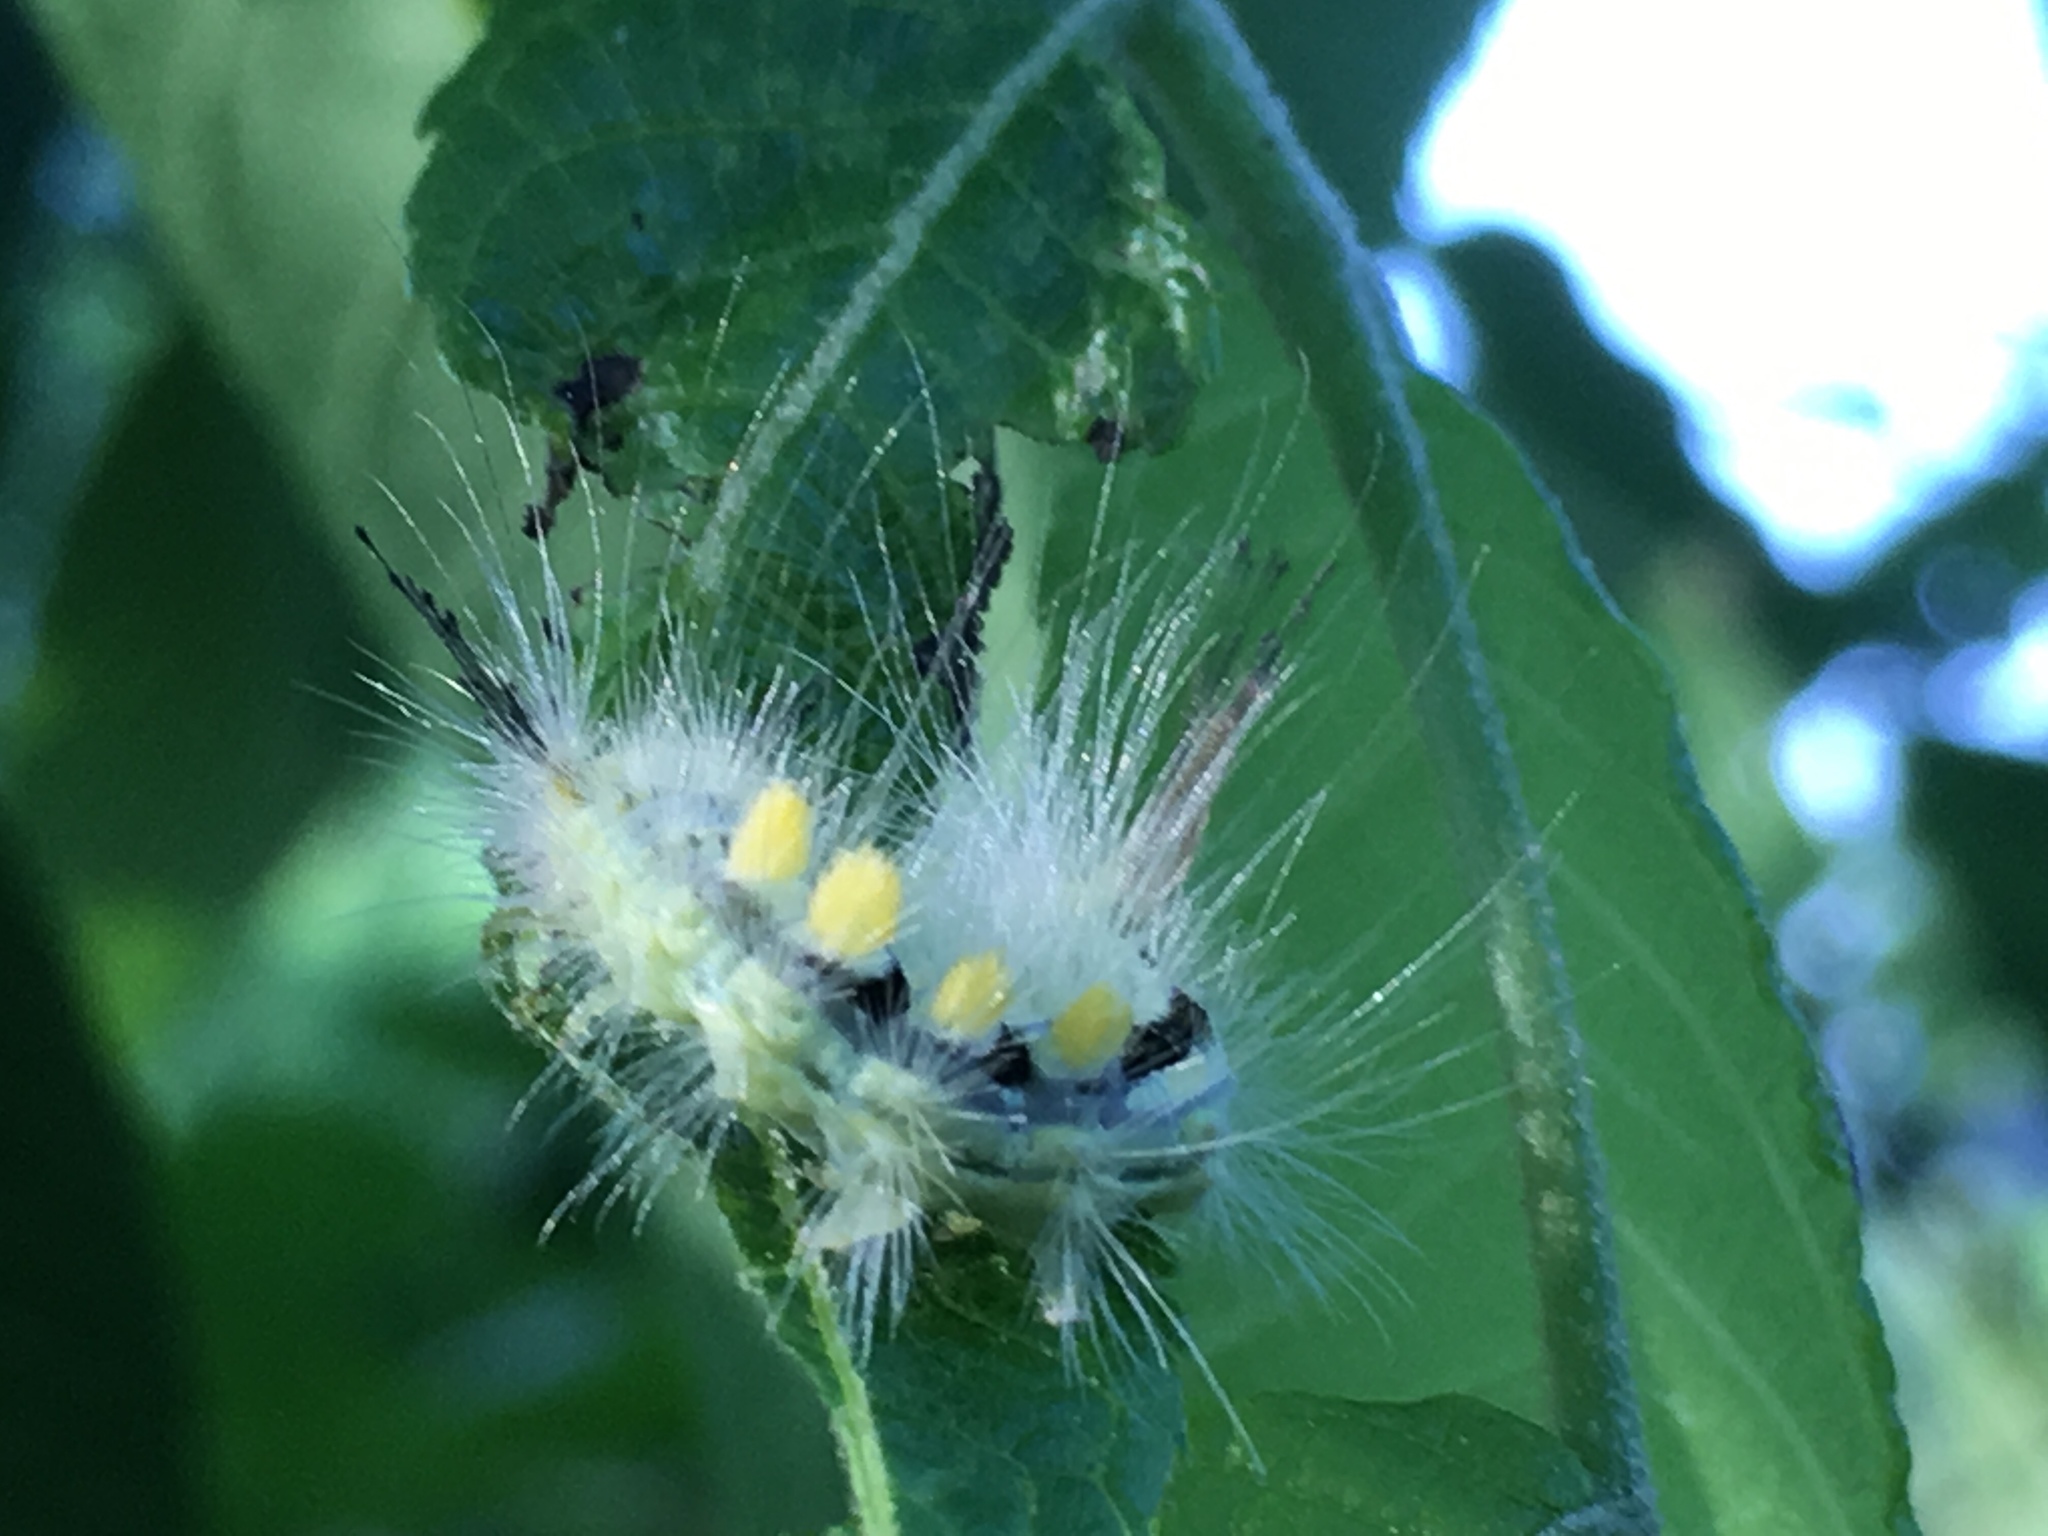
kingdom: Animalia
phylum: Arthropoda
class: Insecta
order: Lepidoptera
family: Erebidae
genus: Orgyia
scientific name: Orgyia definita
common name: Definite tussock moth
